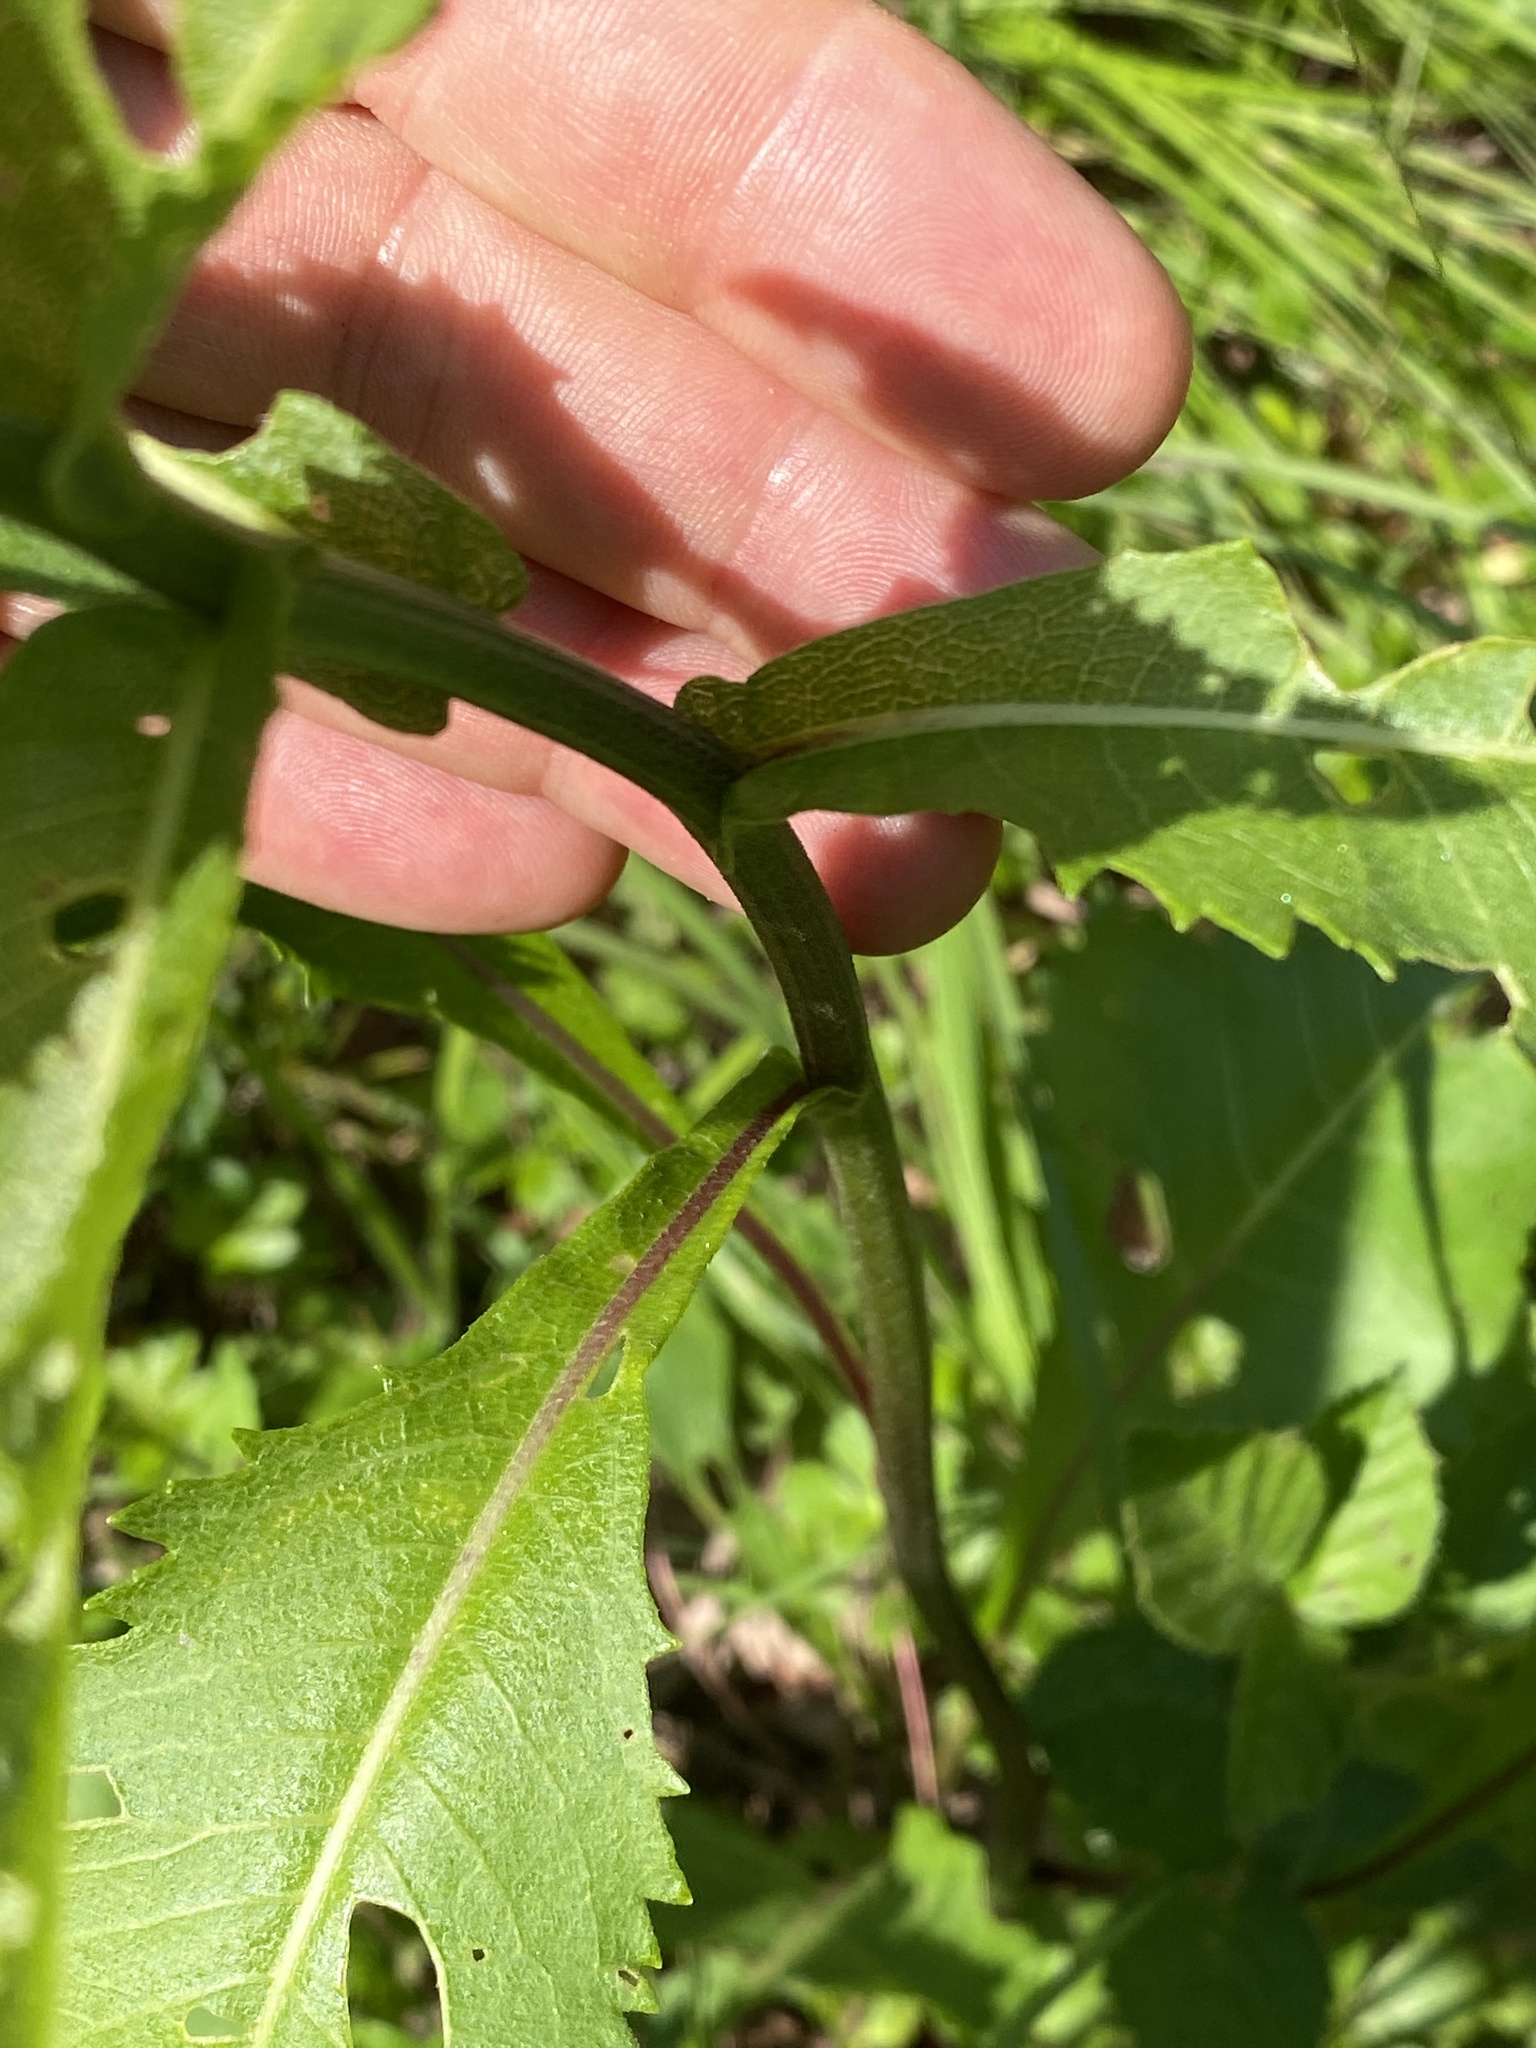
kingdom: Plantae
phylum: Tracheophyta
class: Magnoliopsida
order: Asterales
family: Asteraceae
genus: Parthenium
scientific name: Parthenium integrifolium
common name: American feverfew
